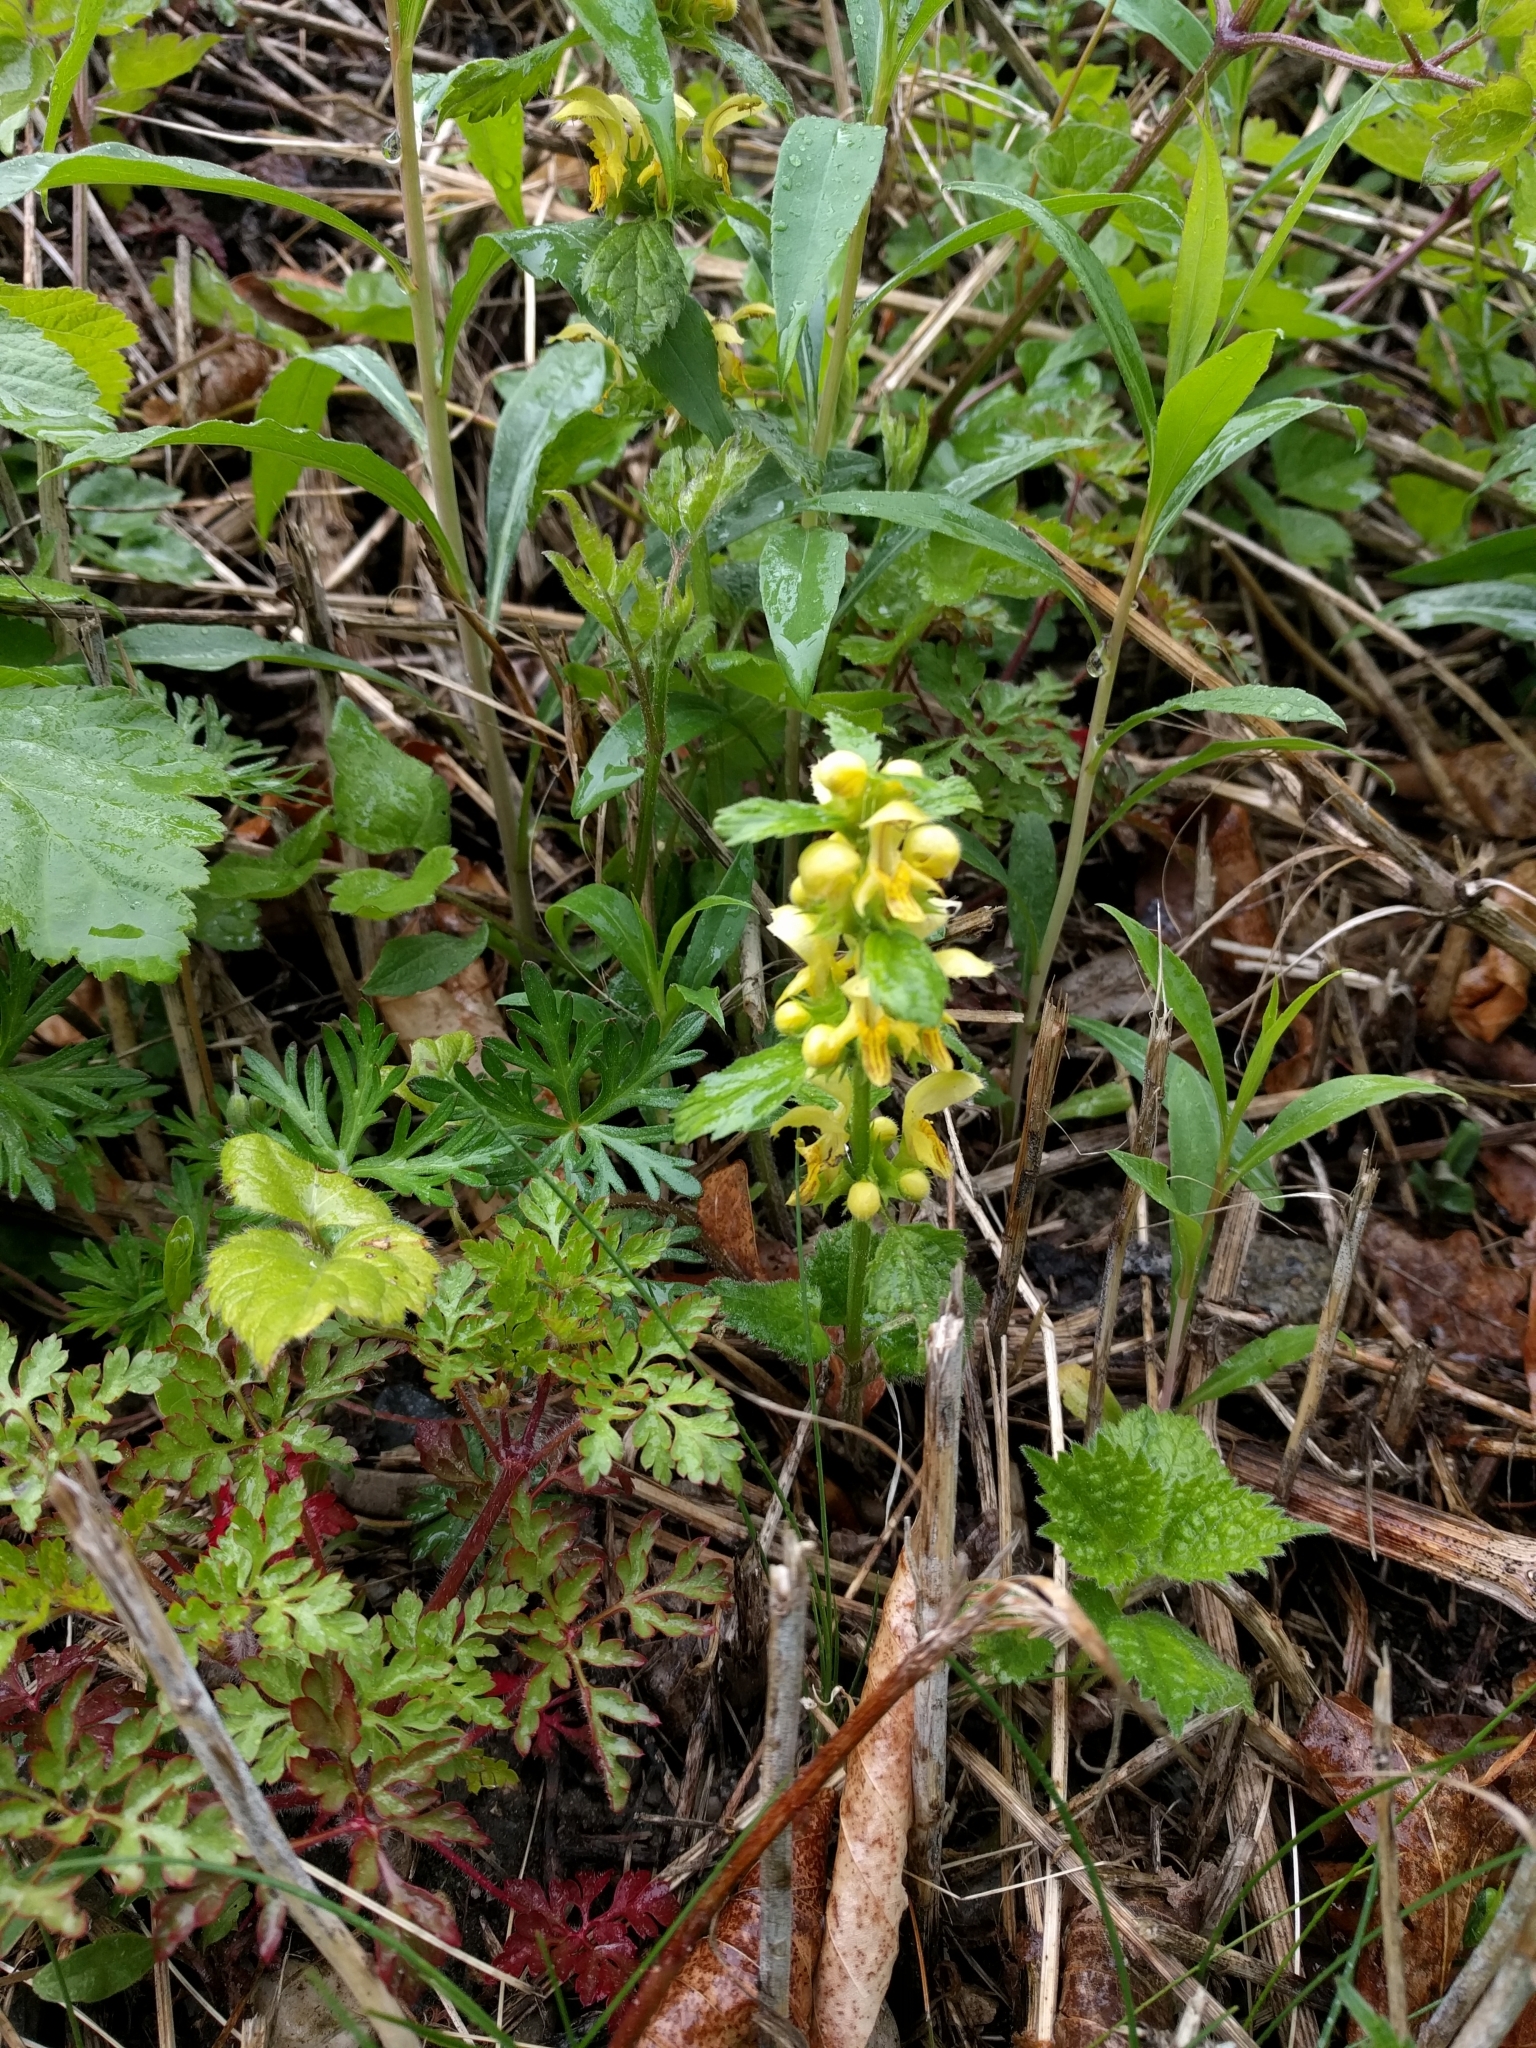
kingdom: Plantae
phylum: Tracheophyta
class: Magnoliopsida
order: Lamiales
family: Lamiaceae
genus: Lamium
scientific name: Lamium galeobdolon
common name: Yellow archangel
